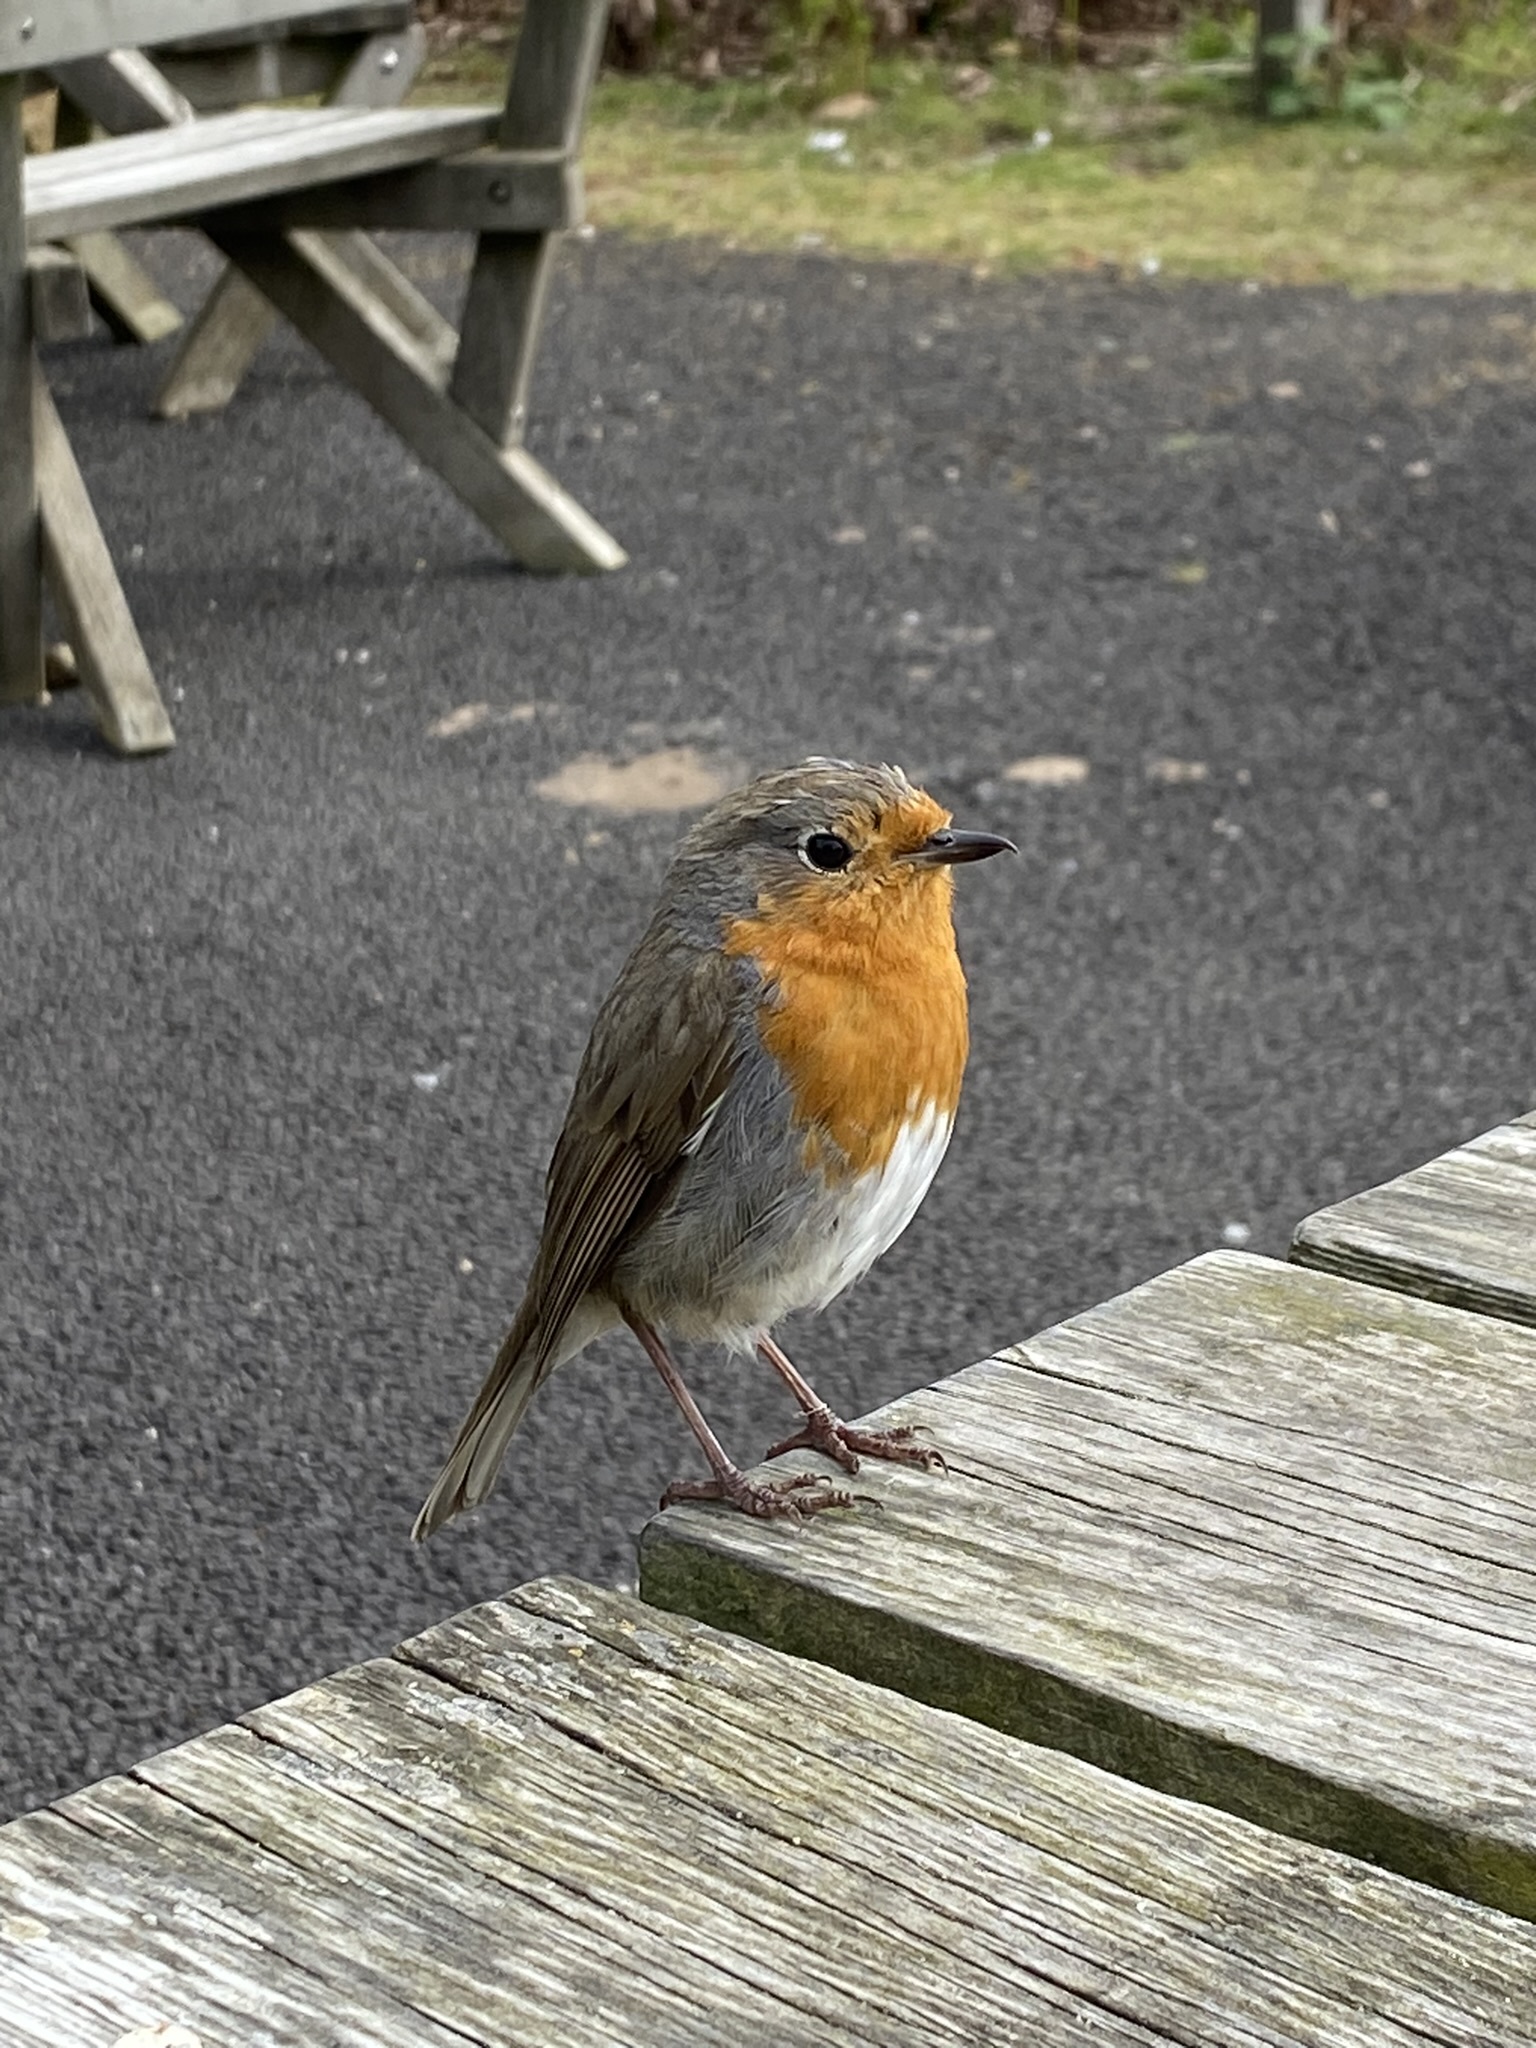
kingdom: Animalia
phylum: Chordata
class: Aves
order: Passeriformes
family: Muscicapidae
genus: Erithacus
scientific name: Erithacus rubecula
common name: European robin
